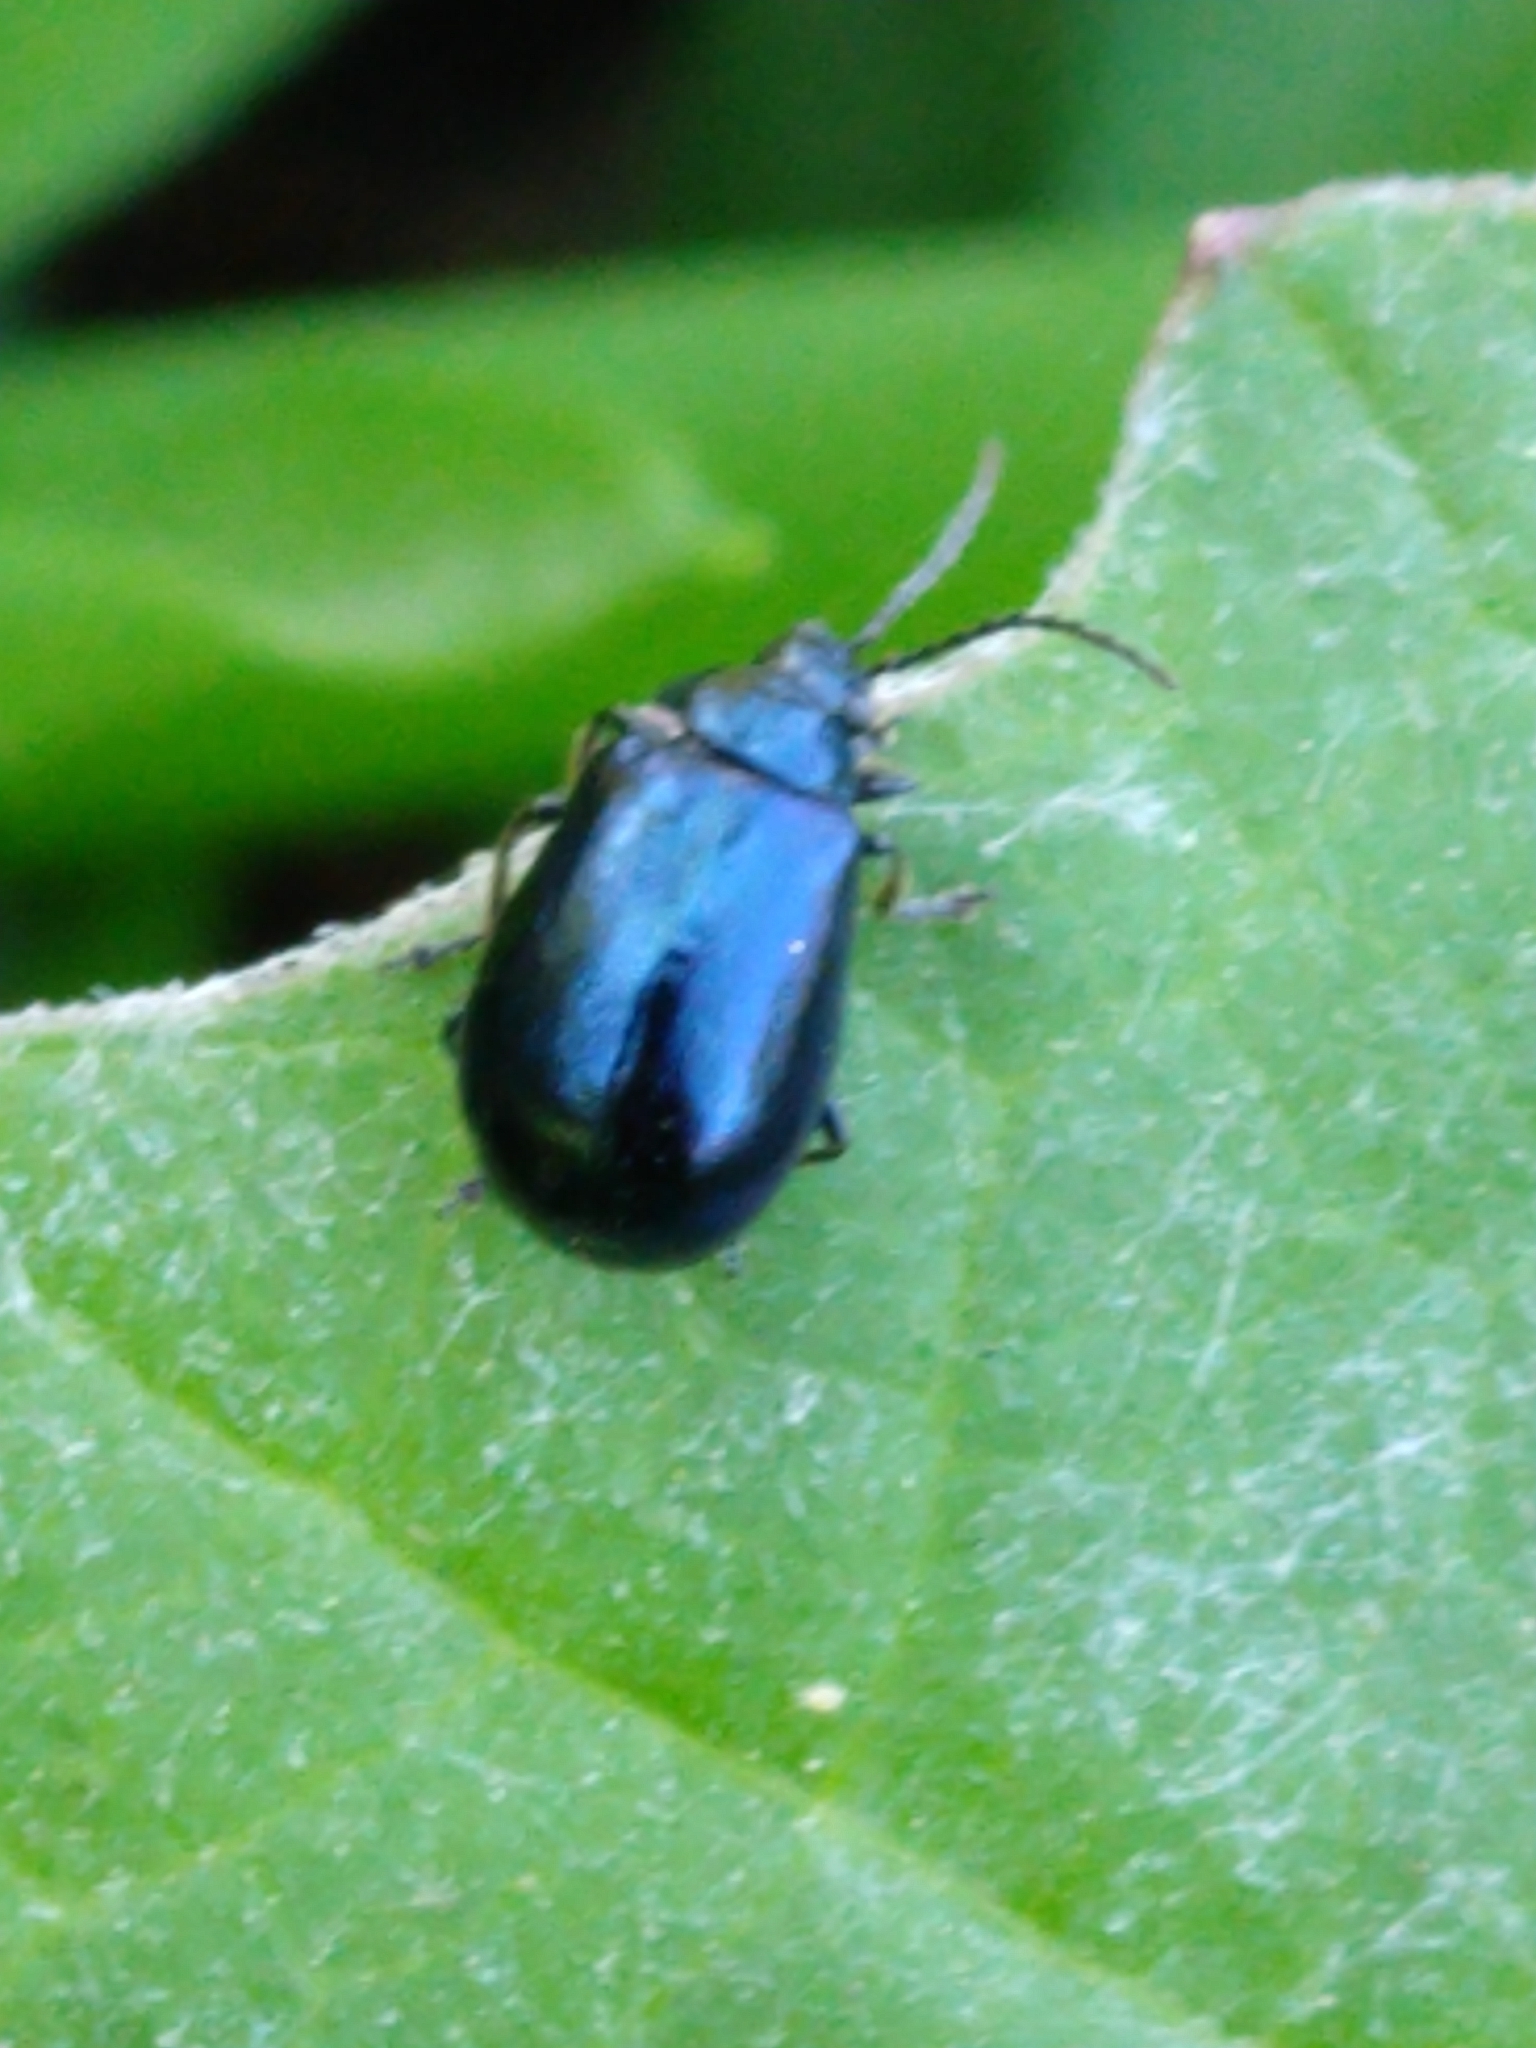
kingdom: Animalia
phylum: Arthropoda
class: Insecta
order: Coleoptera
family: Chrysomelidae
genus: Agelastica
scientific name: Agelastica alni
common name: Alder leaf beetle
